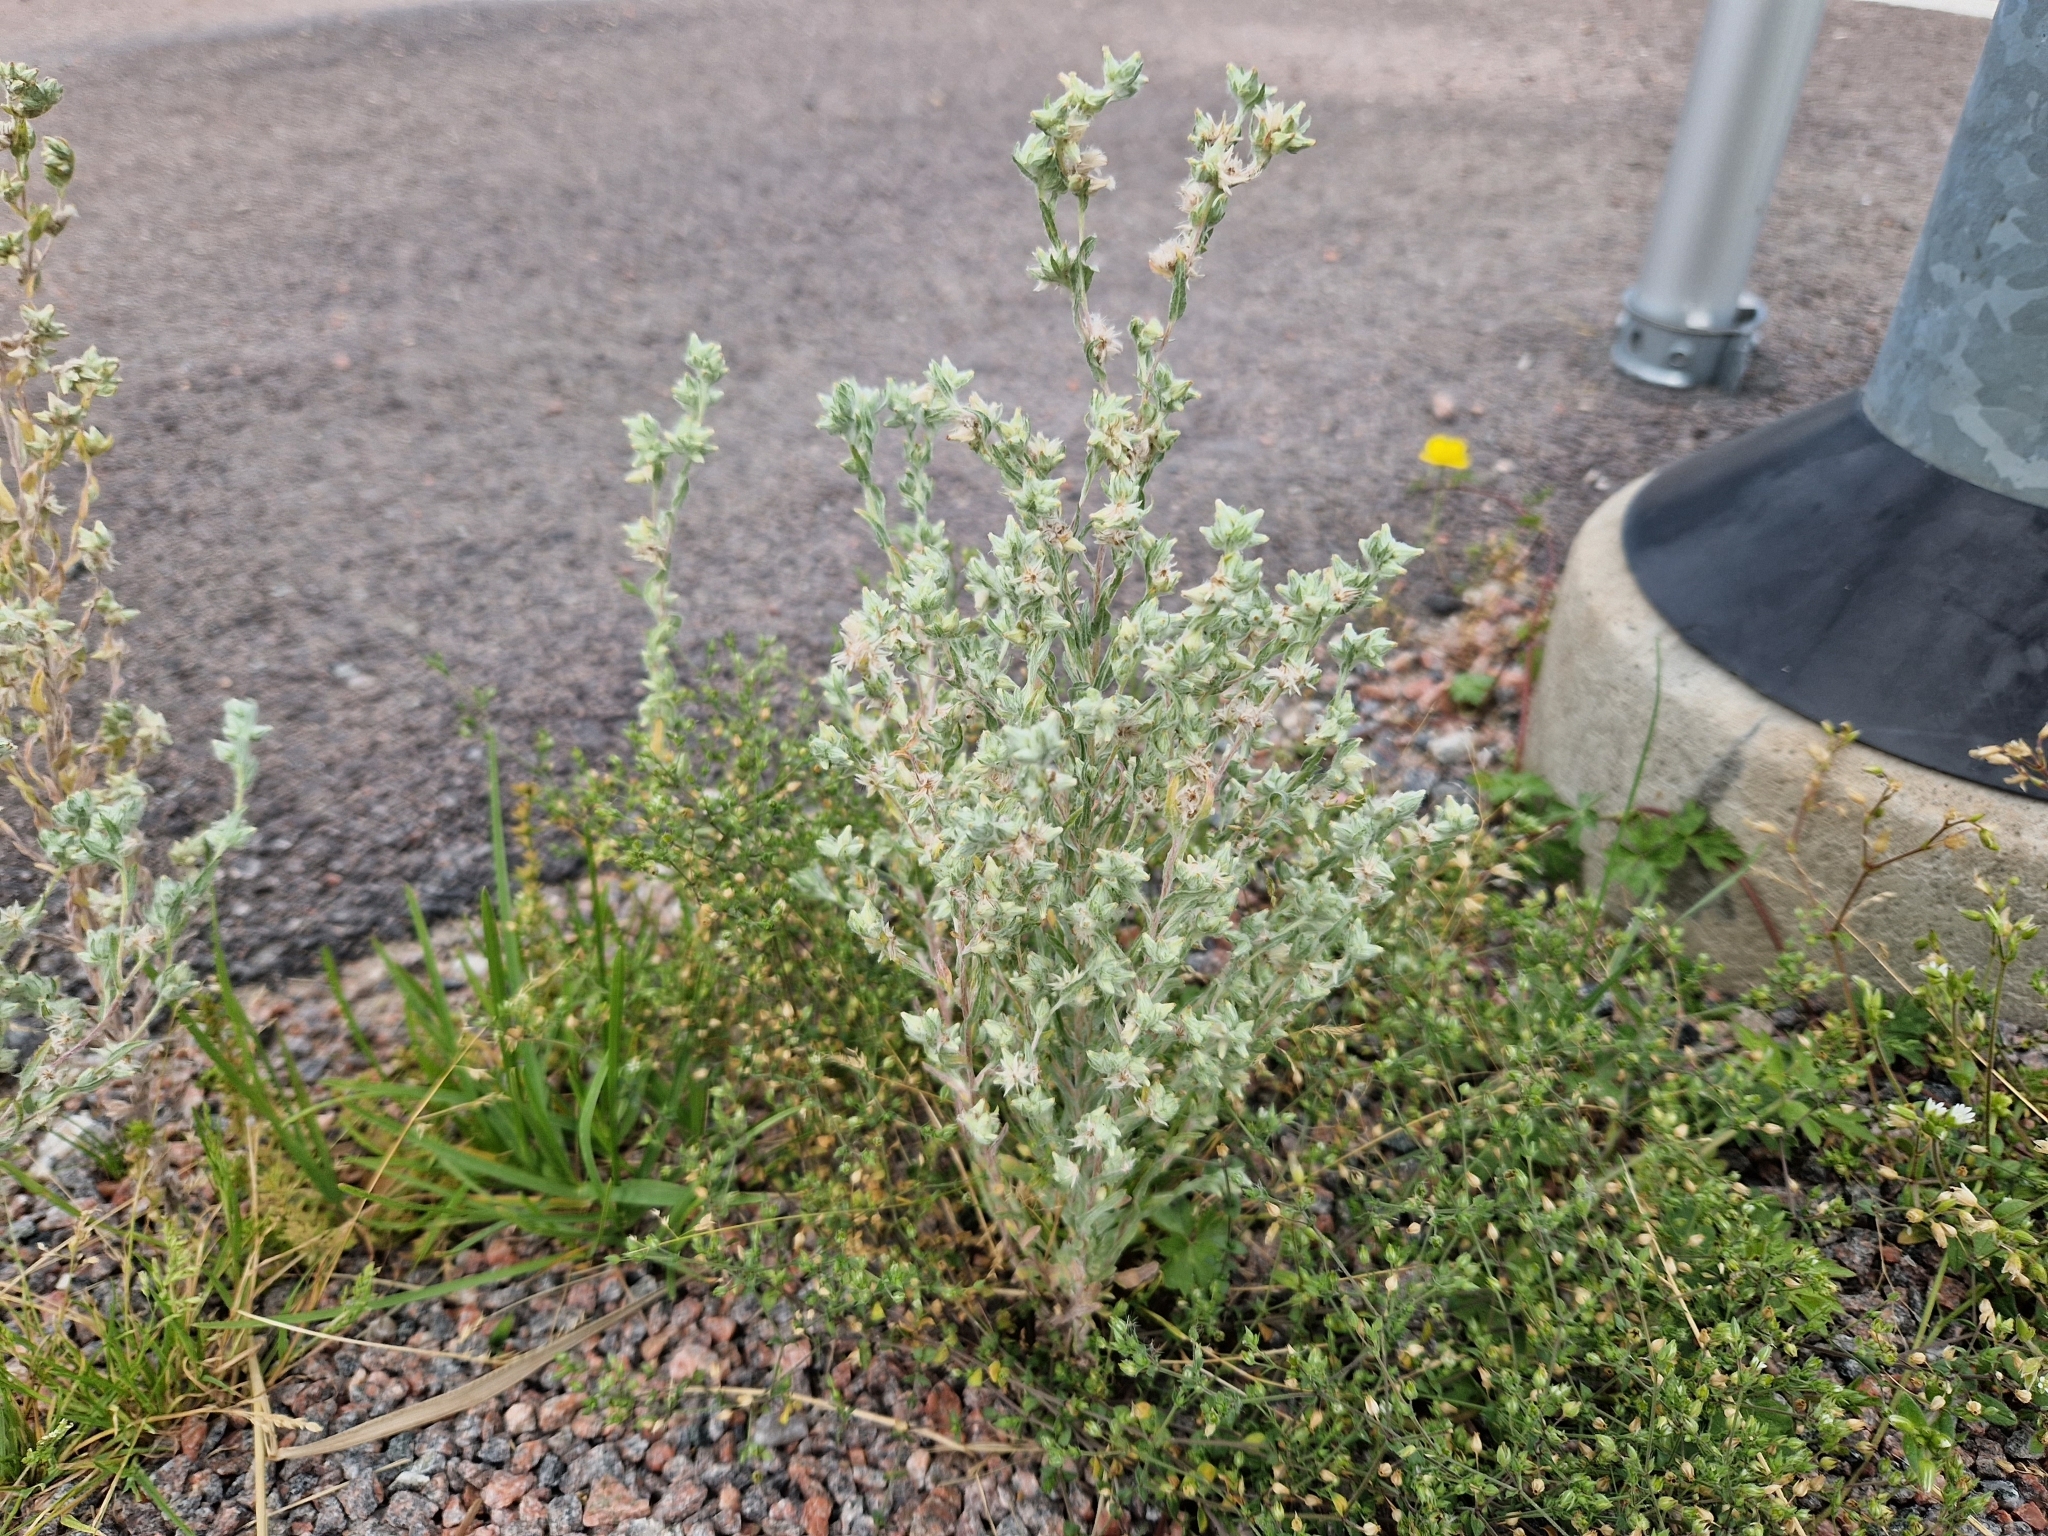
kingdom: Plantae
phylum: Tracheophyta
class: Magnoliopsida
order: Asterales
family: Asteraceae
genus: Filago
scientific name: Filago arvensis
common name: Field cudweed
